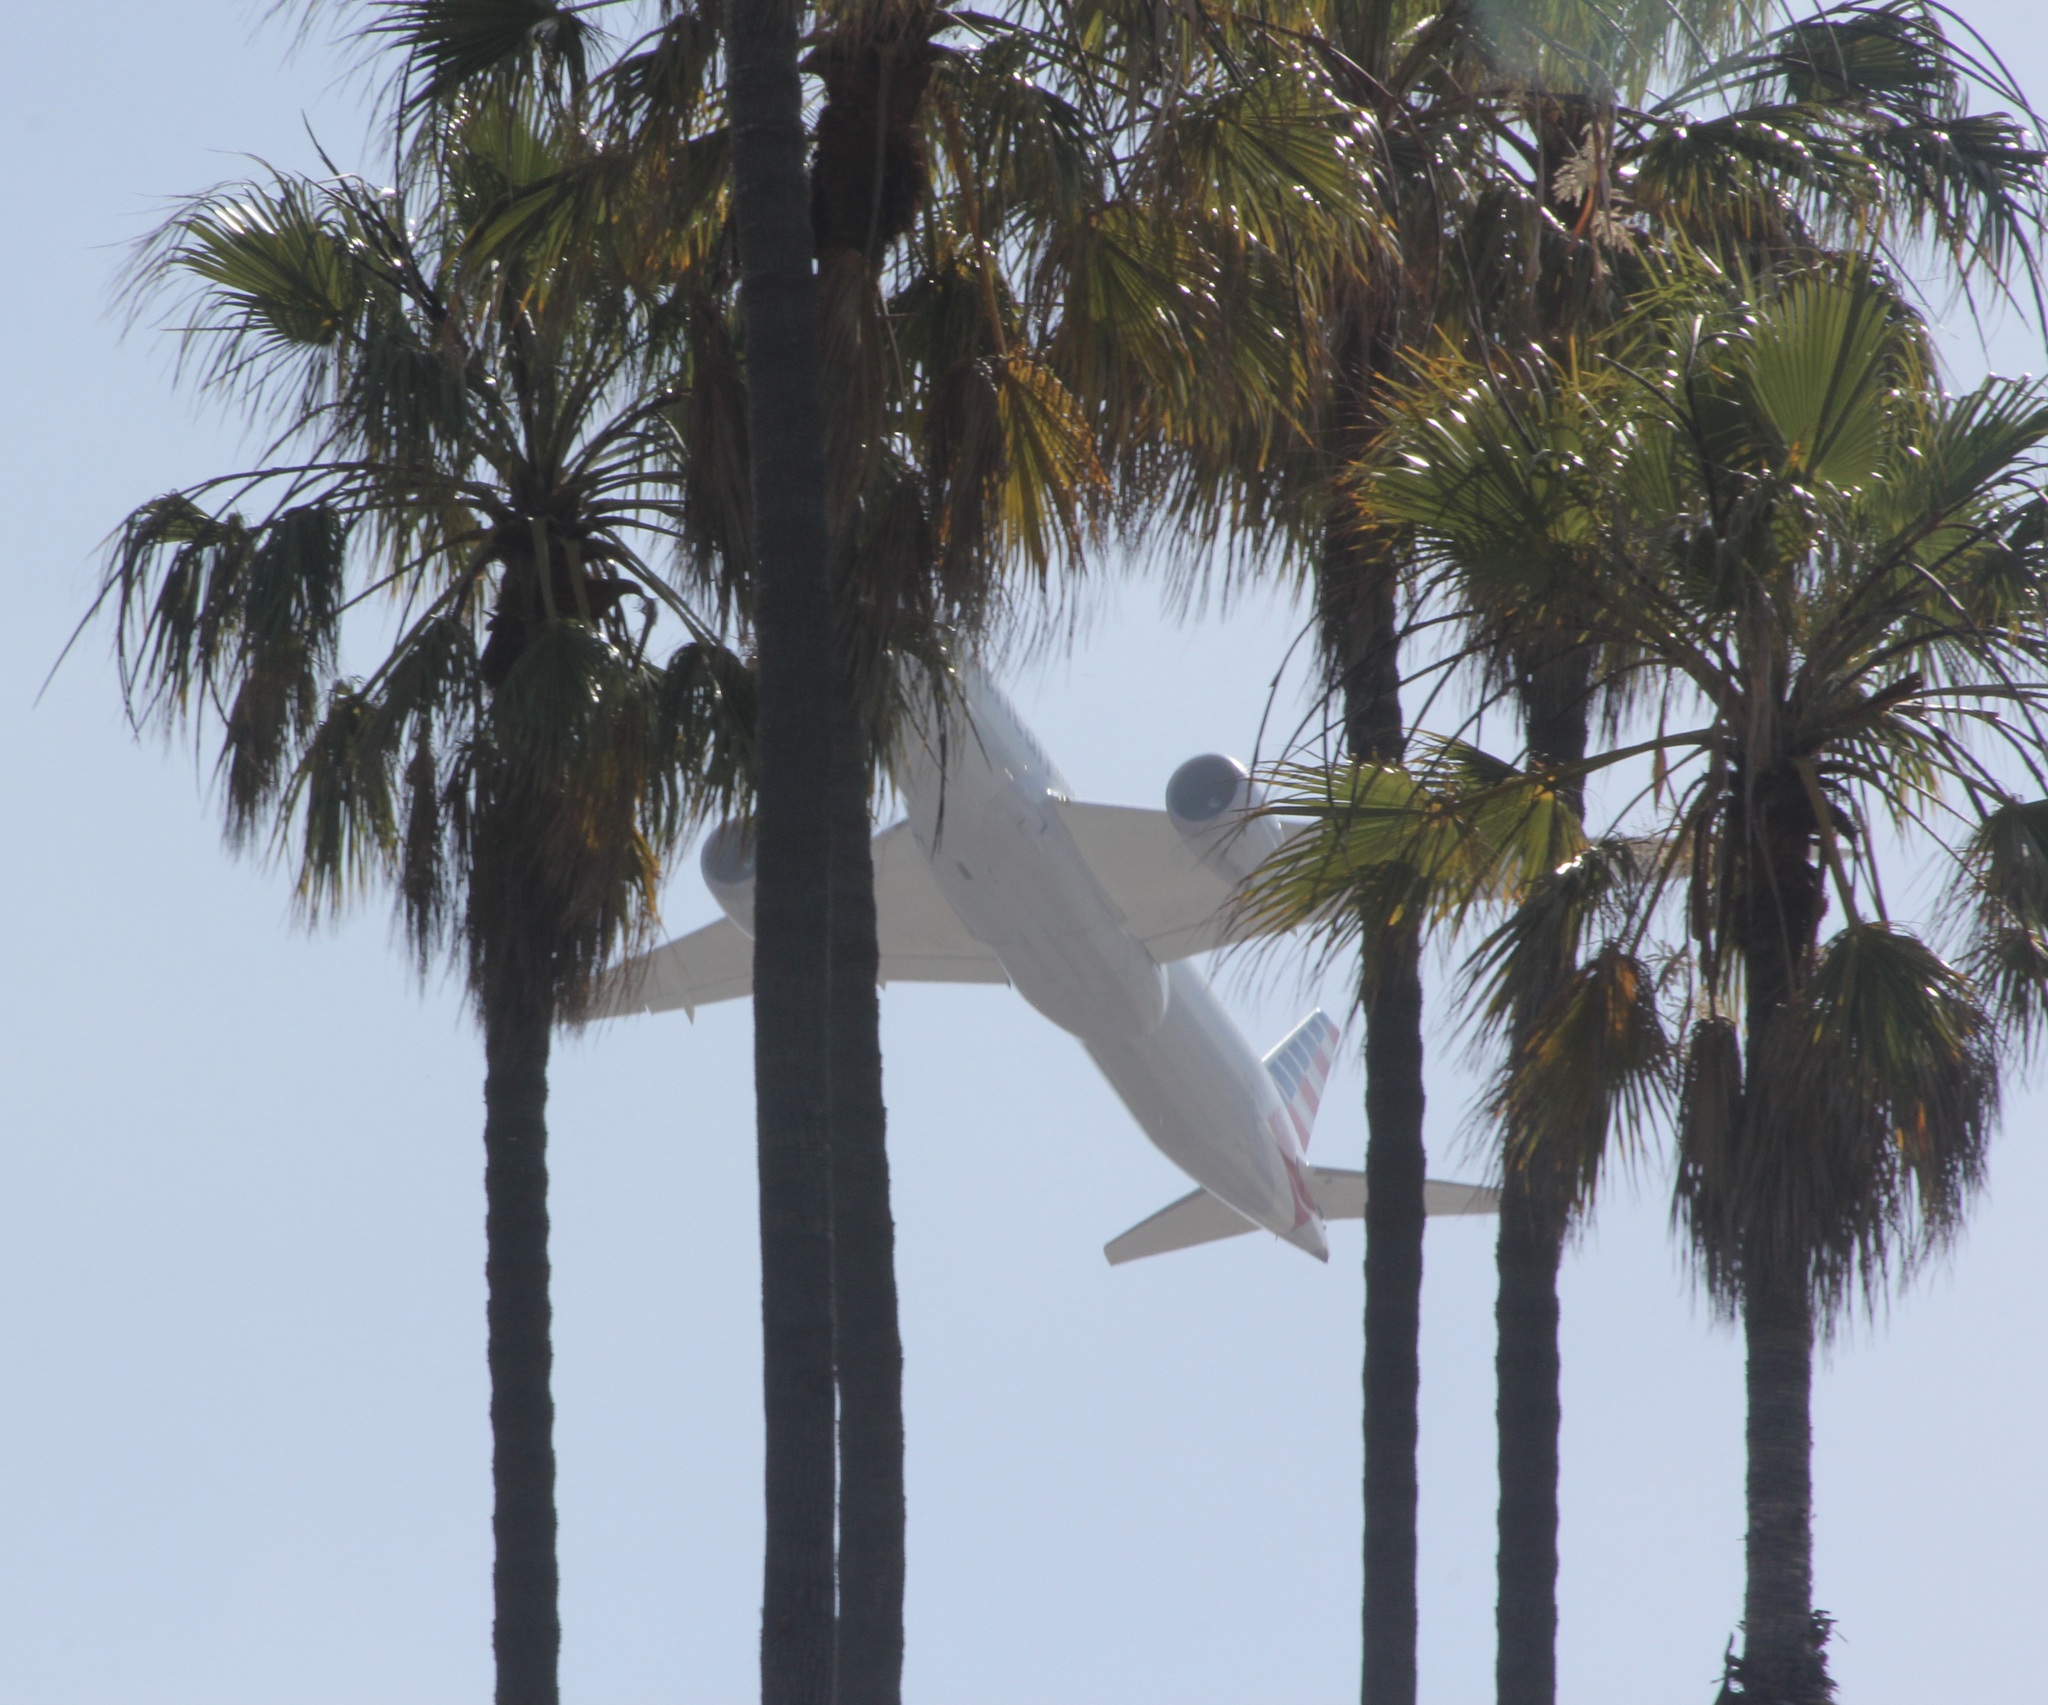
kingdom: Plantae
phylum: Tracheophyta
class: Liliopsida
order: Arecales
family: Arecaceae
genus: Washingtonia
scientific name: Washingtonia filifera
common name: California fan palm
